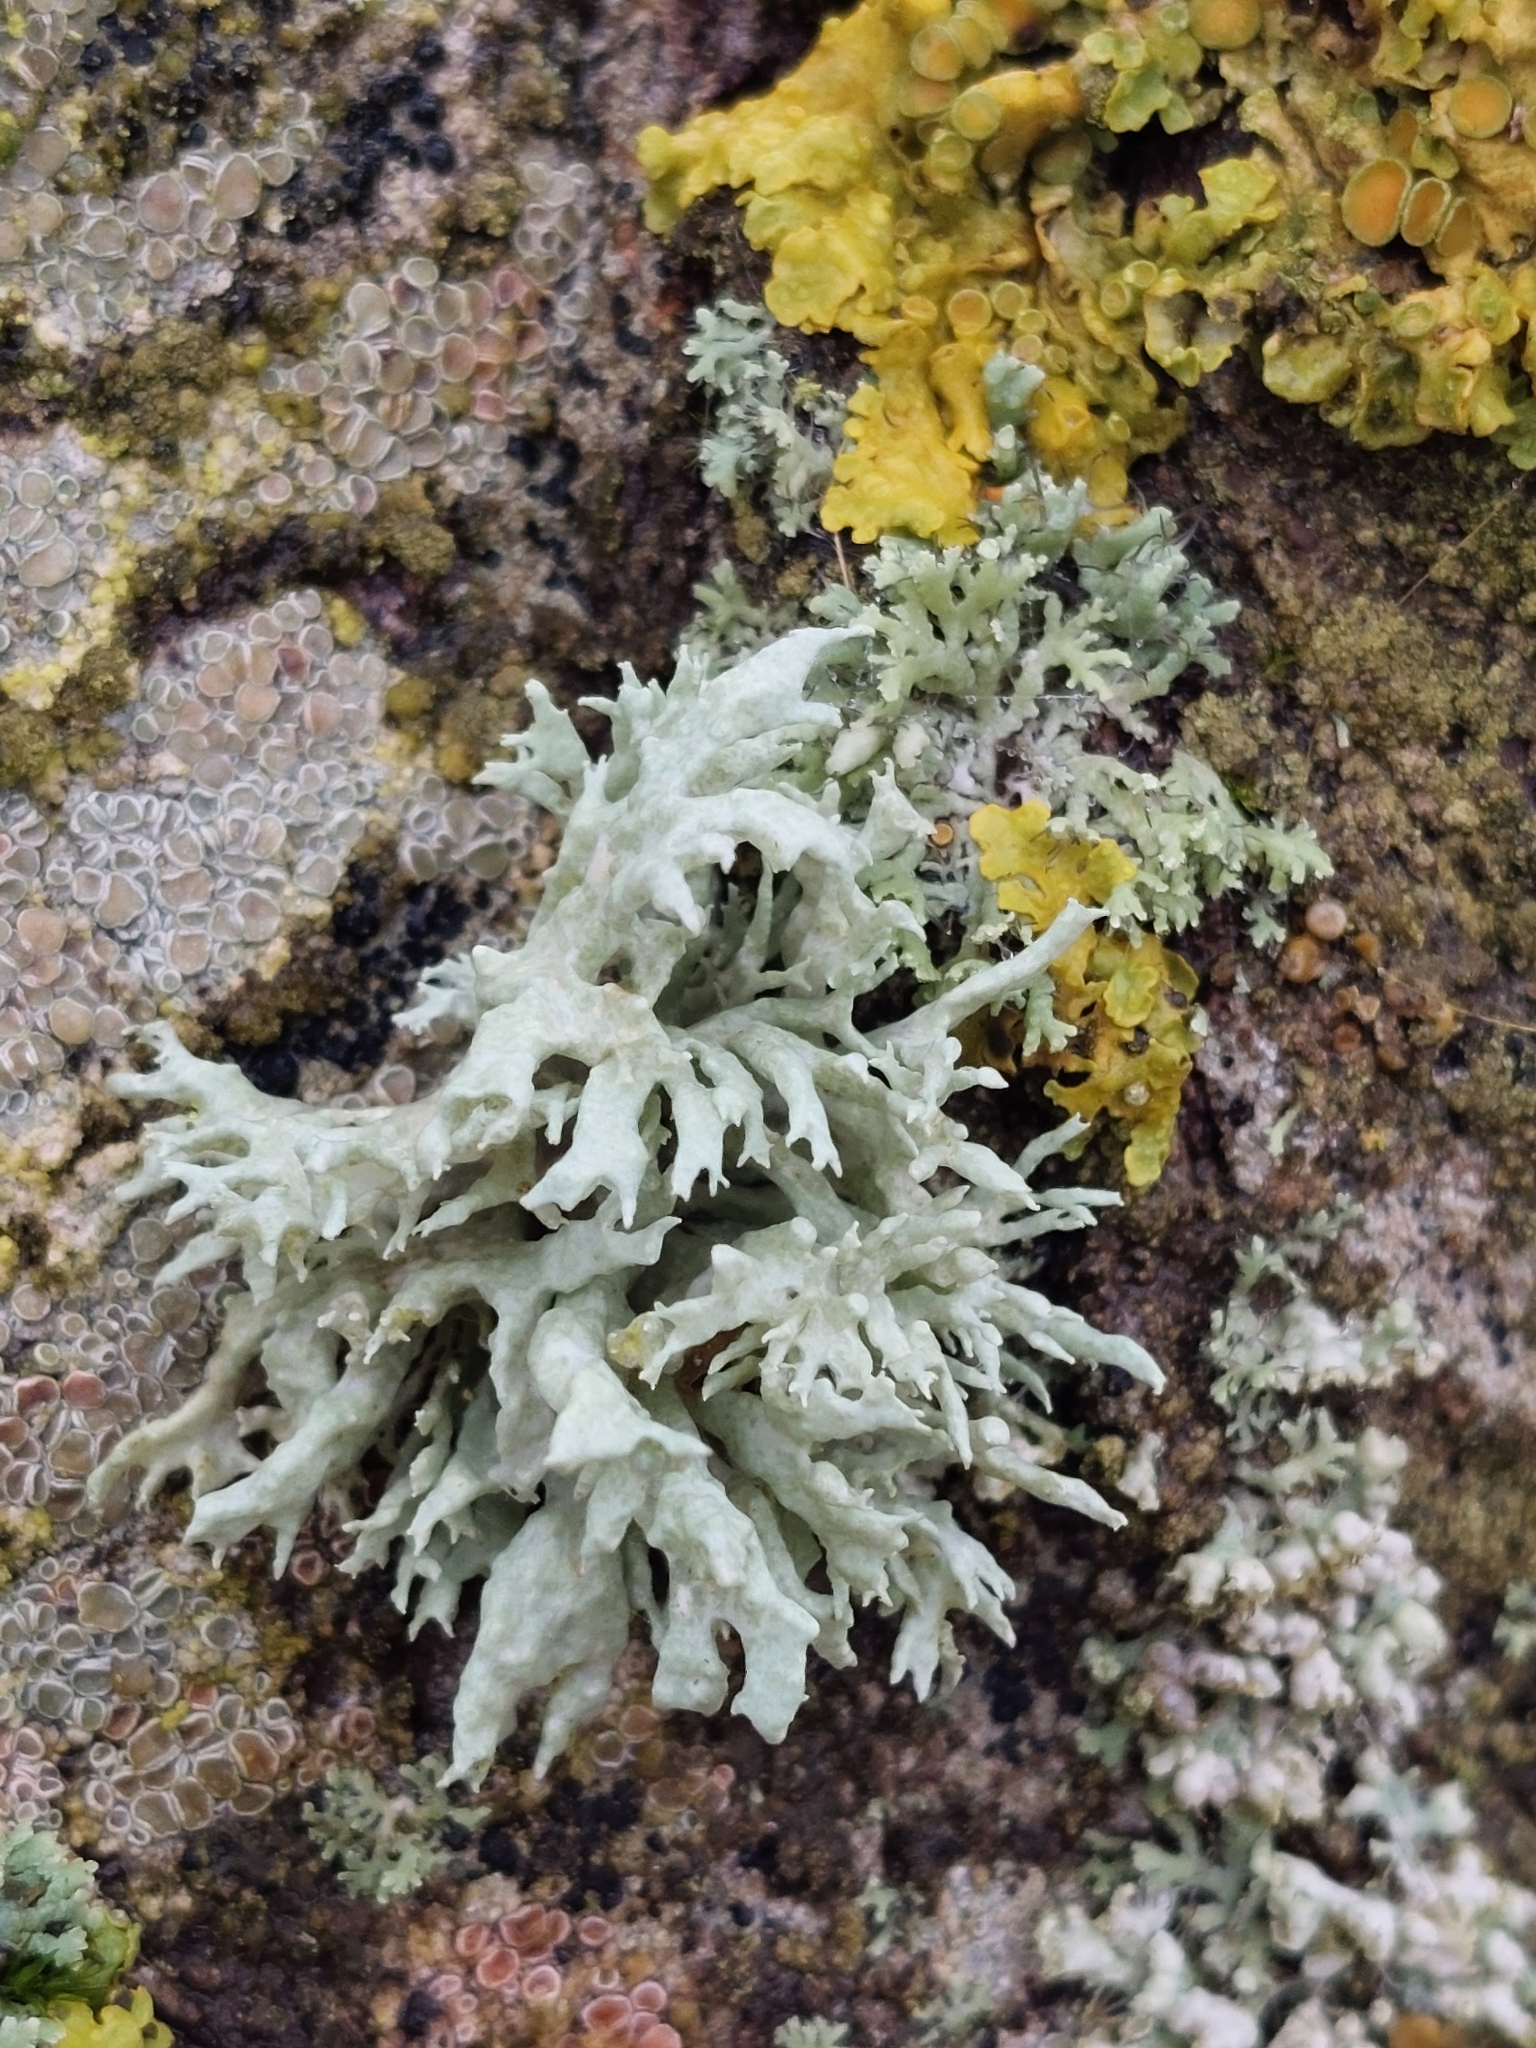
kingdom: Fungi
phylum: Ascomycota
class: Lecanoromycetes
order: Lecanorales
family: Parmeliaceae
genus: Evernia
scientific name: Evernia prunastri
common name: Oak moss
